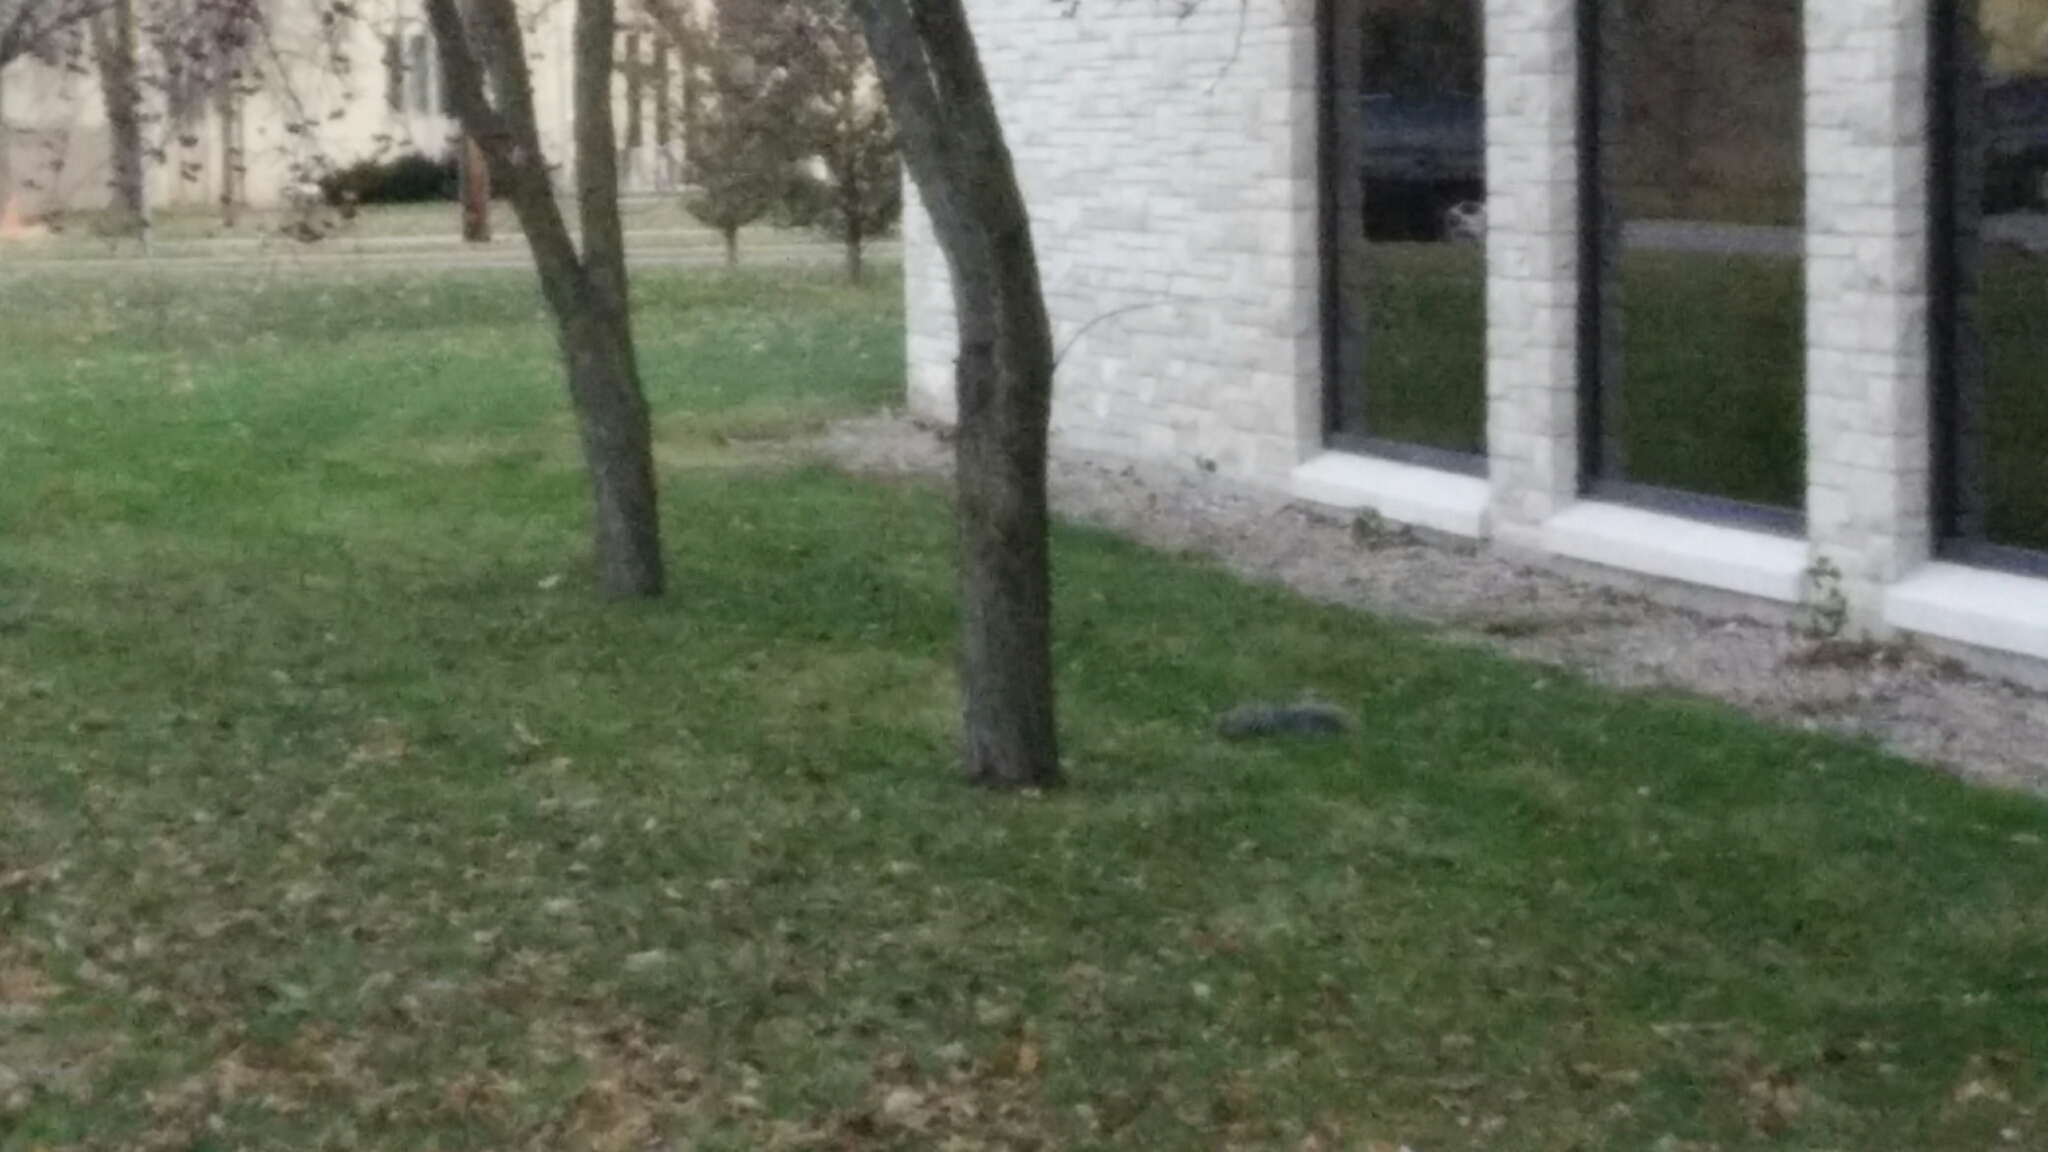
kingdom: Animalia
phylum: Chordata
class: Mammalia
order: Rodentia
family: Sciuridae
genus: Sciurus
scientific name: Sciurus carolinensis
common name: Eastern gray squirrel
